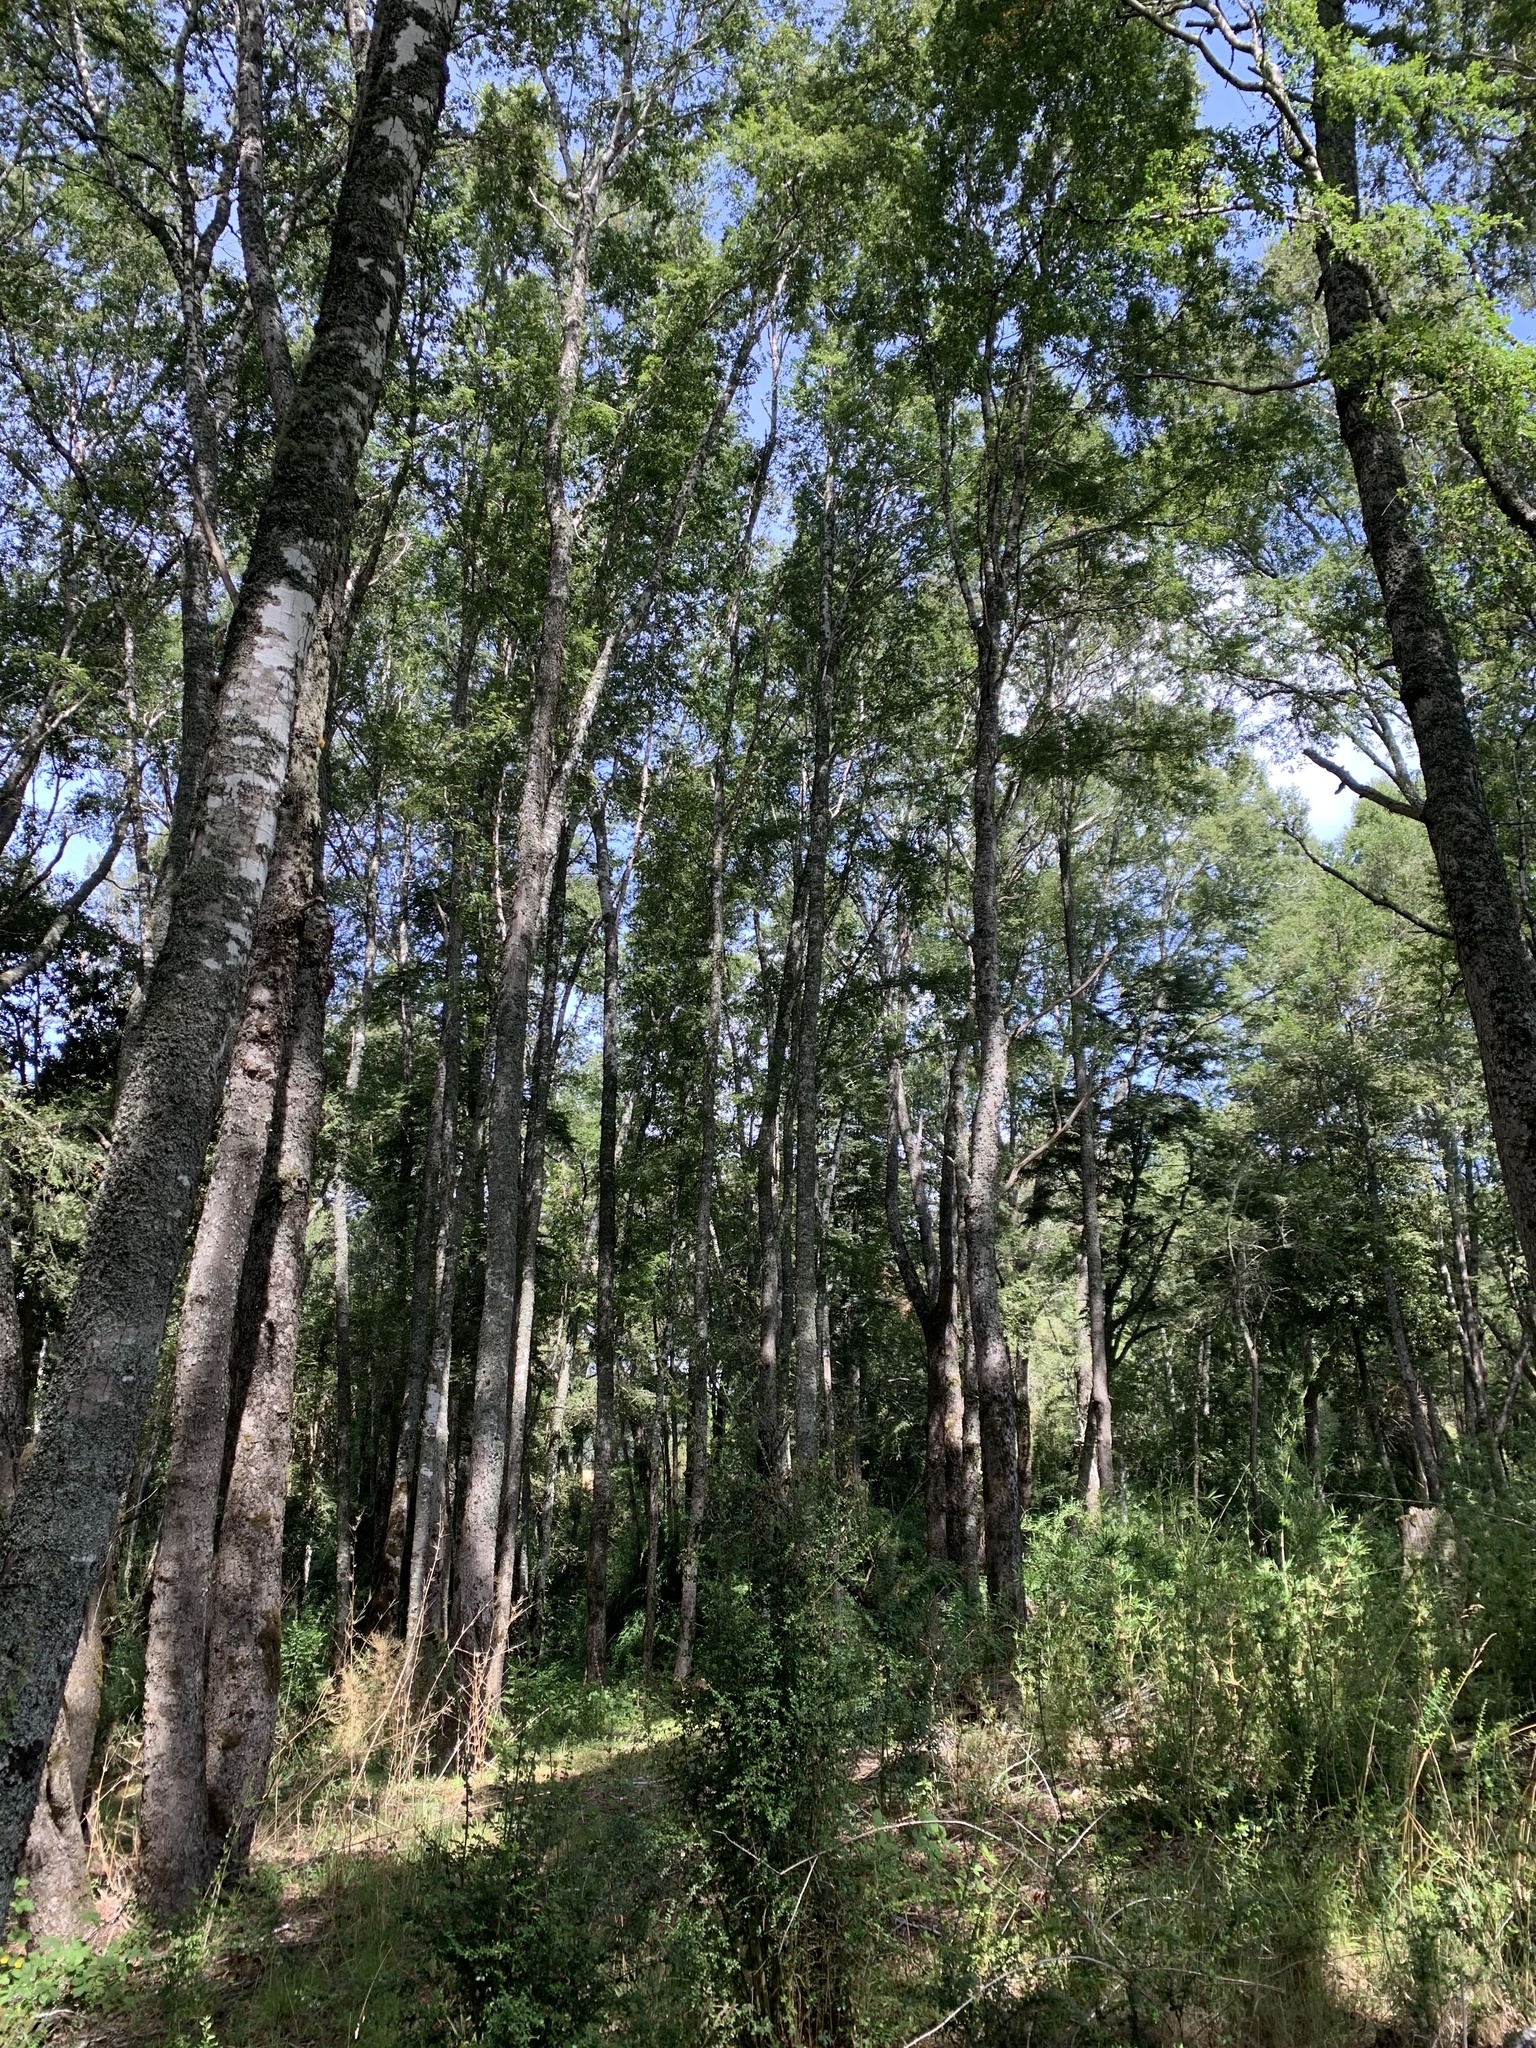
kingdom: Plantae
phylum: Tracheophyta
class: Magnoliopsida
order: Fagales
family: Nothofagaceae
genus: Nothofagus
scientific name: Nothofagus obliqua
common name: Roble beech
